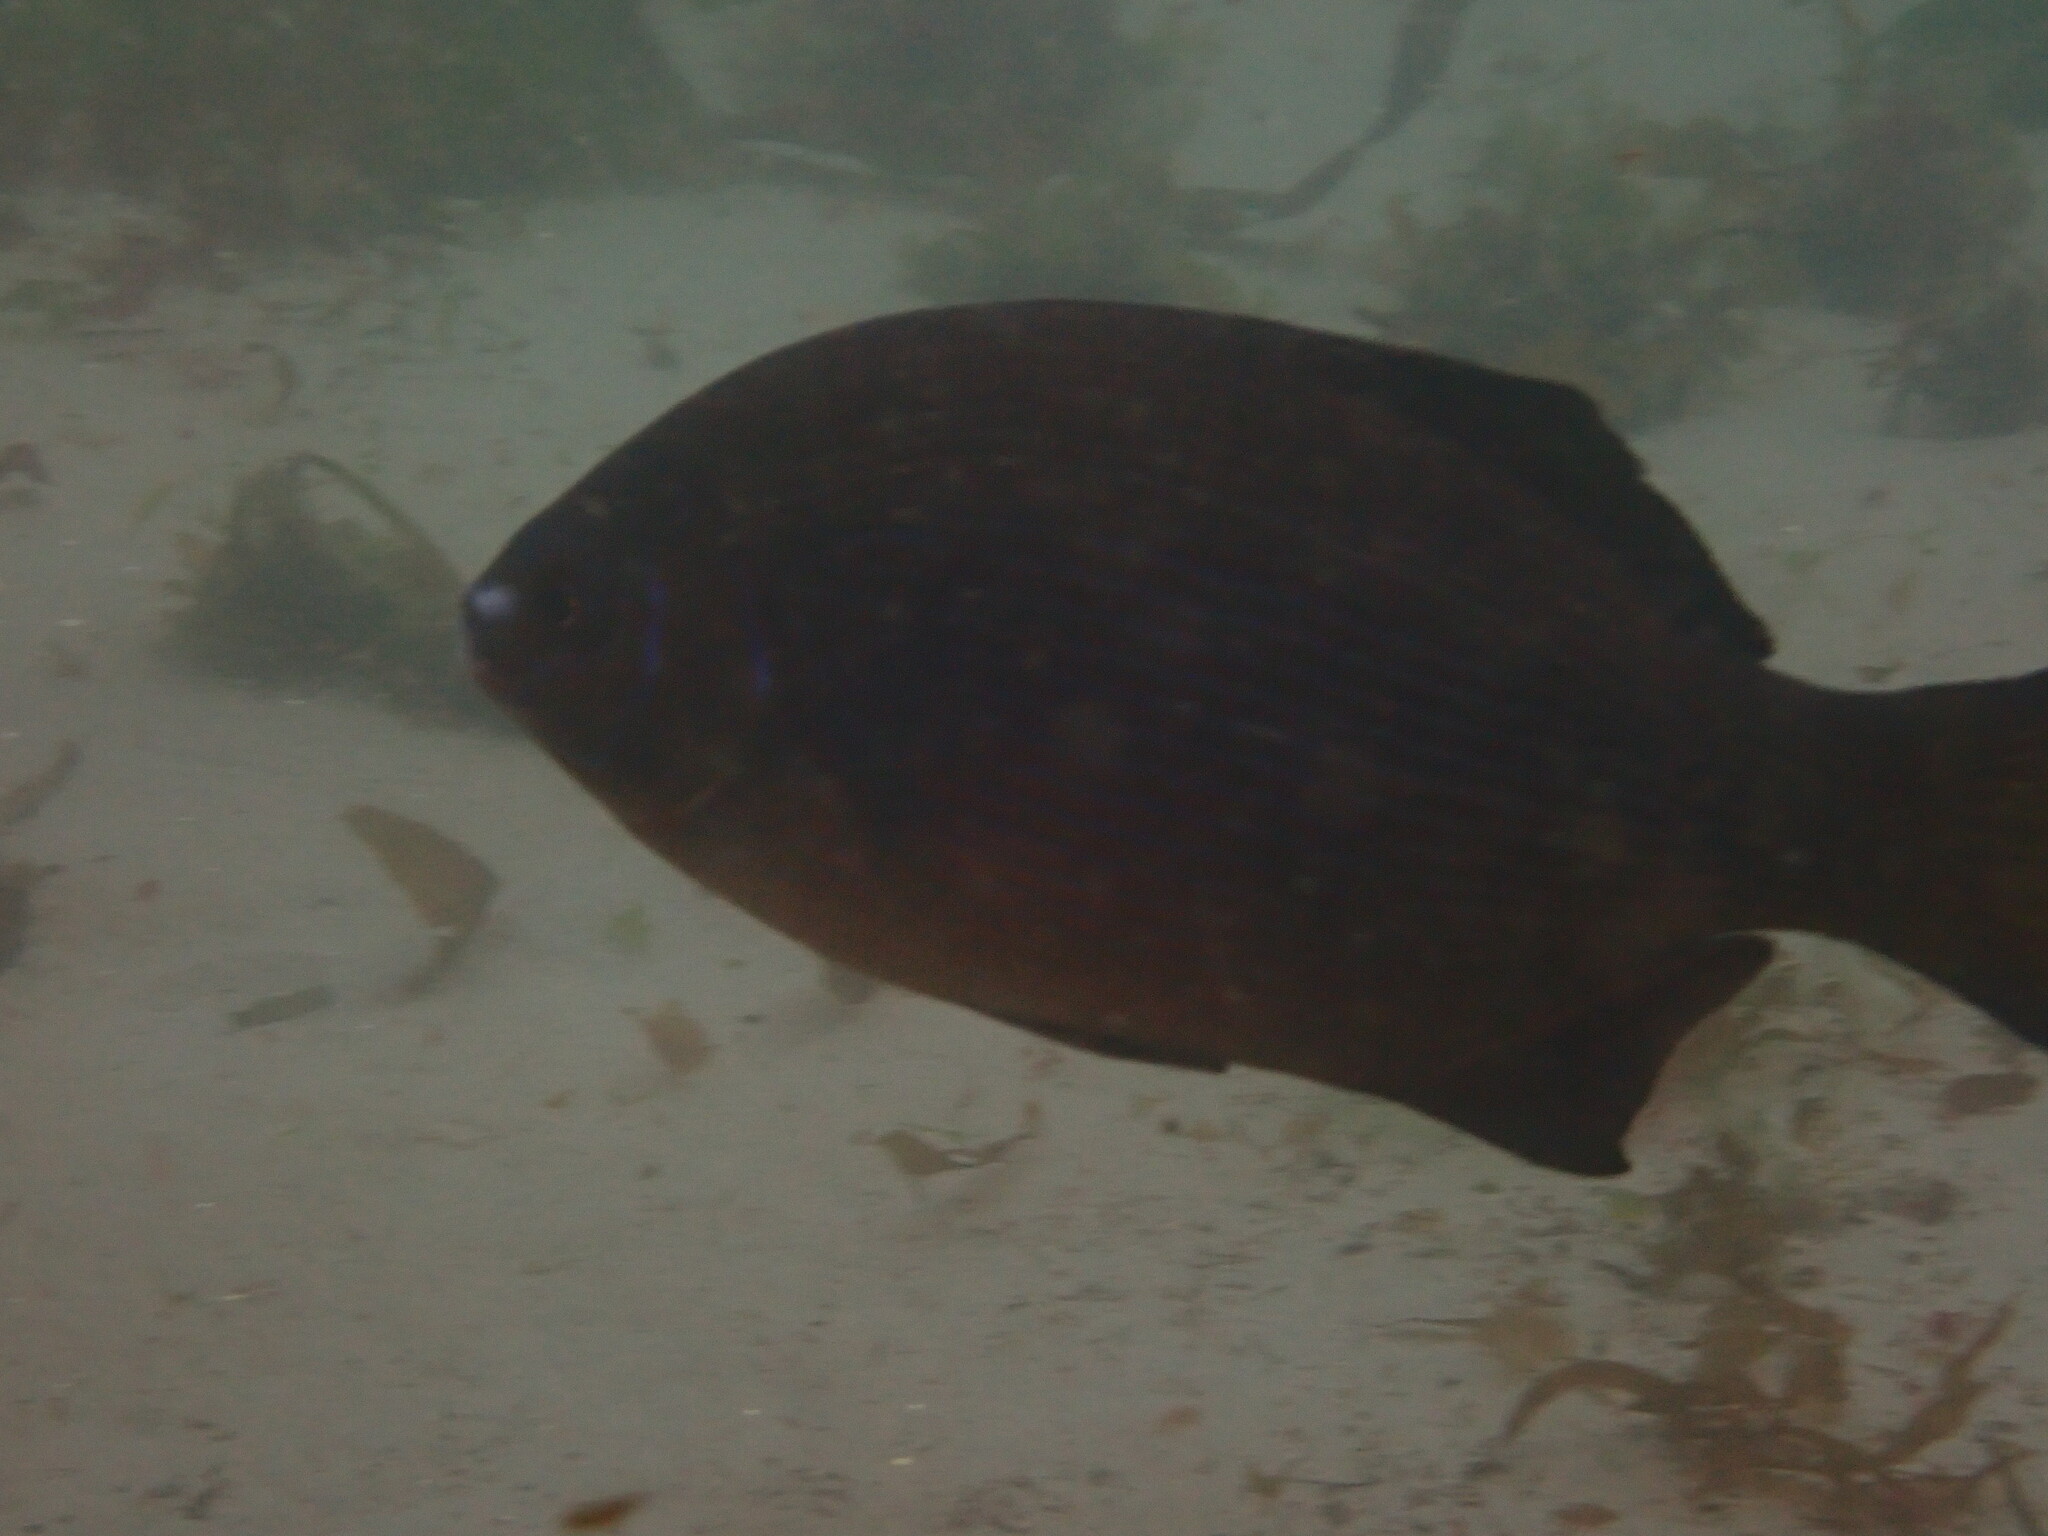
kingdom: Animalia
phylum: Chordata
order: Perciformes
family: Embiotocidae
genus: Embiotoca
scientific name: Embiotoca lateralis
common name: Striped surfperch
